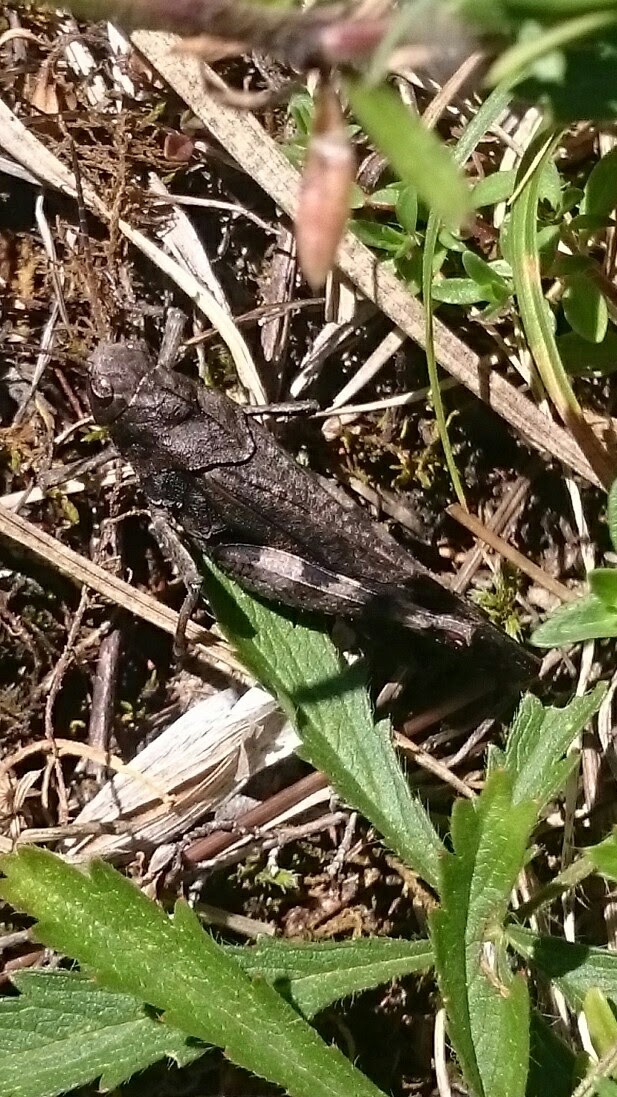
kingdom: Animalia
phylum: Arthropoda
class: Insecta
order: Orthoptera
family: Acrididae
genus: Psophus
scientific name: Psophus stridulus
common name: Rattle grasshopper
